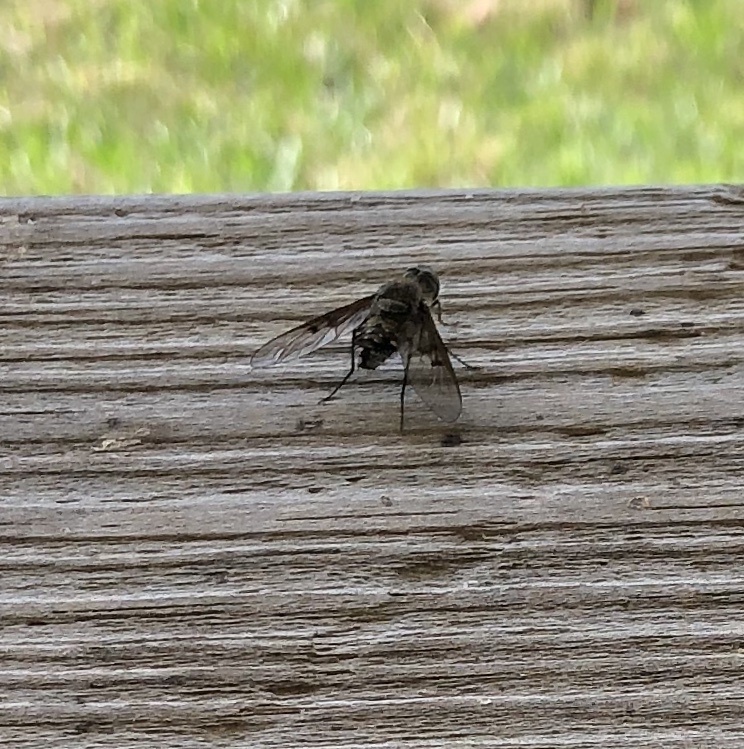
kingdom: Animalia
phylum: Arthropoda
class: Insecta
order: Diptera
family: Bombyliidae
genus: Anthrax
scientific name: Anthrax larrea
